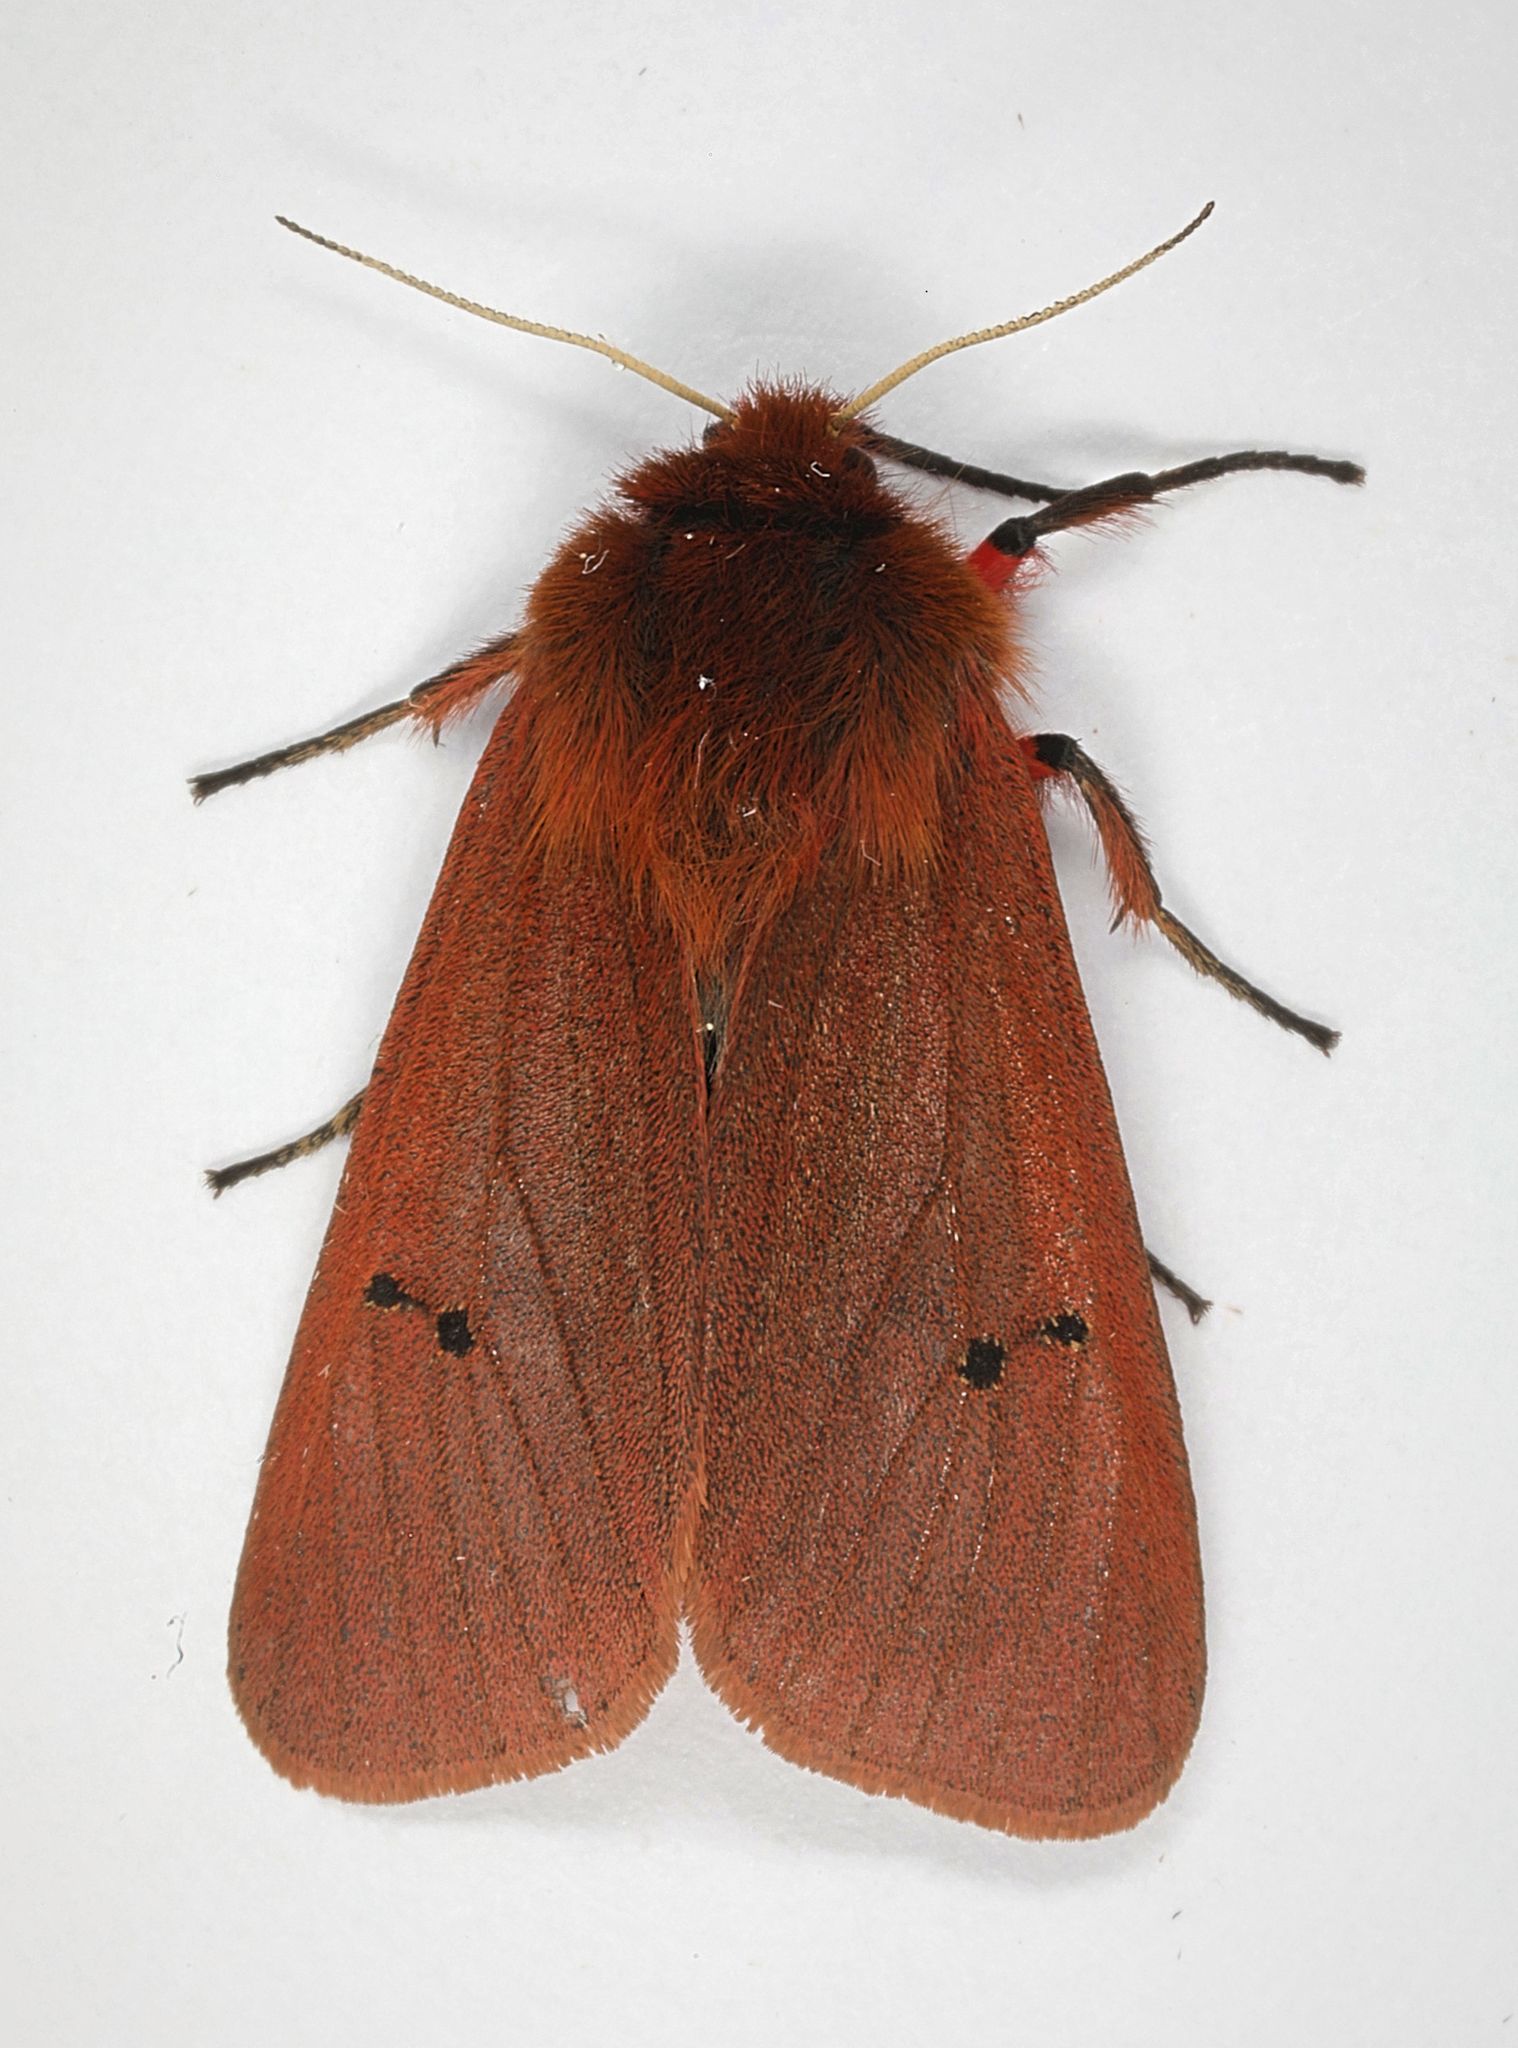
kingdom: Animalia
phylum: Arthropoda
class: Insecta
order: Lepidoptera
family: Erebidae
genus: Phragmatobia
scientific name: Phragmatobia fuliginosa
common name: Ruby tiger
